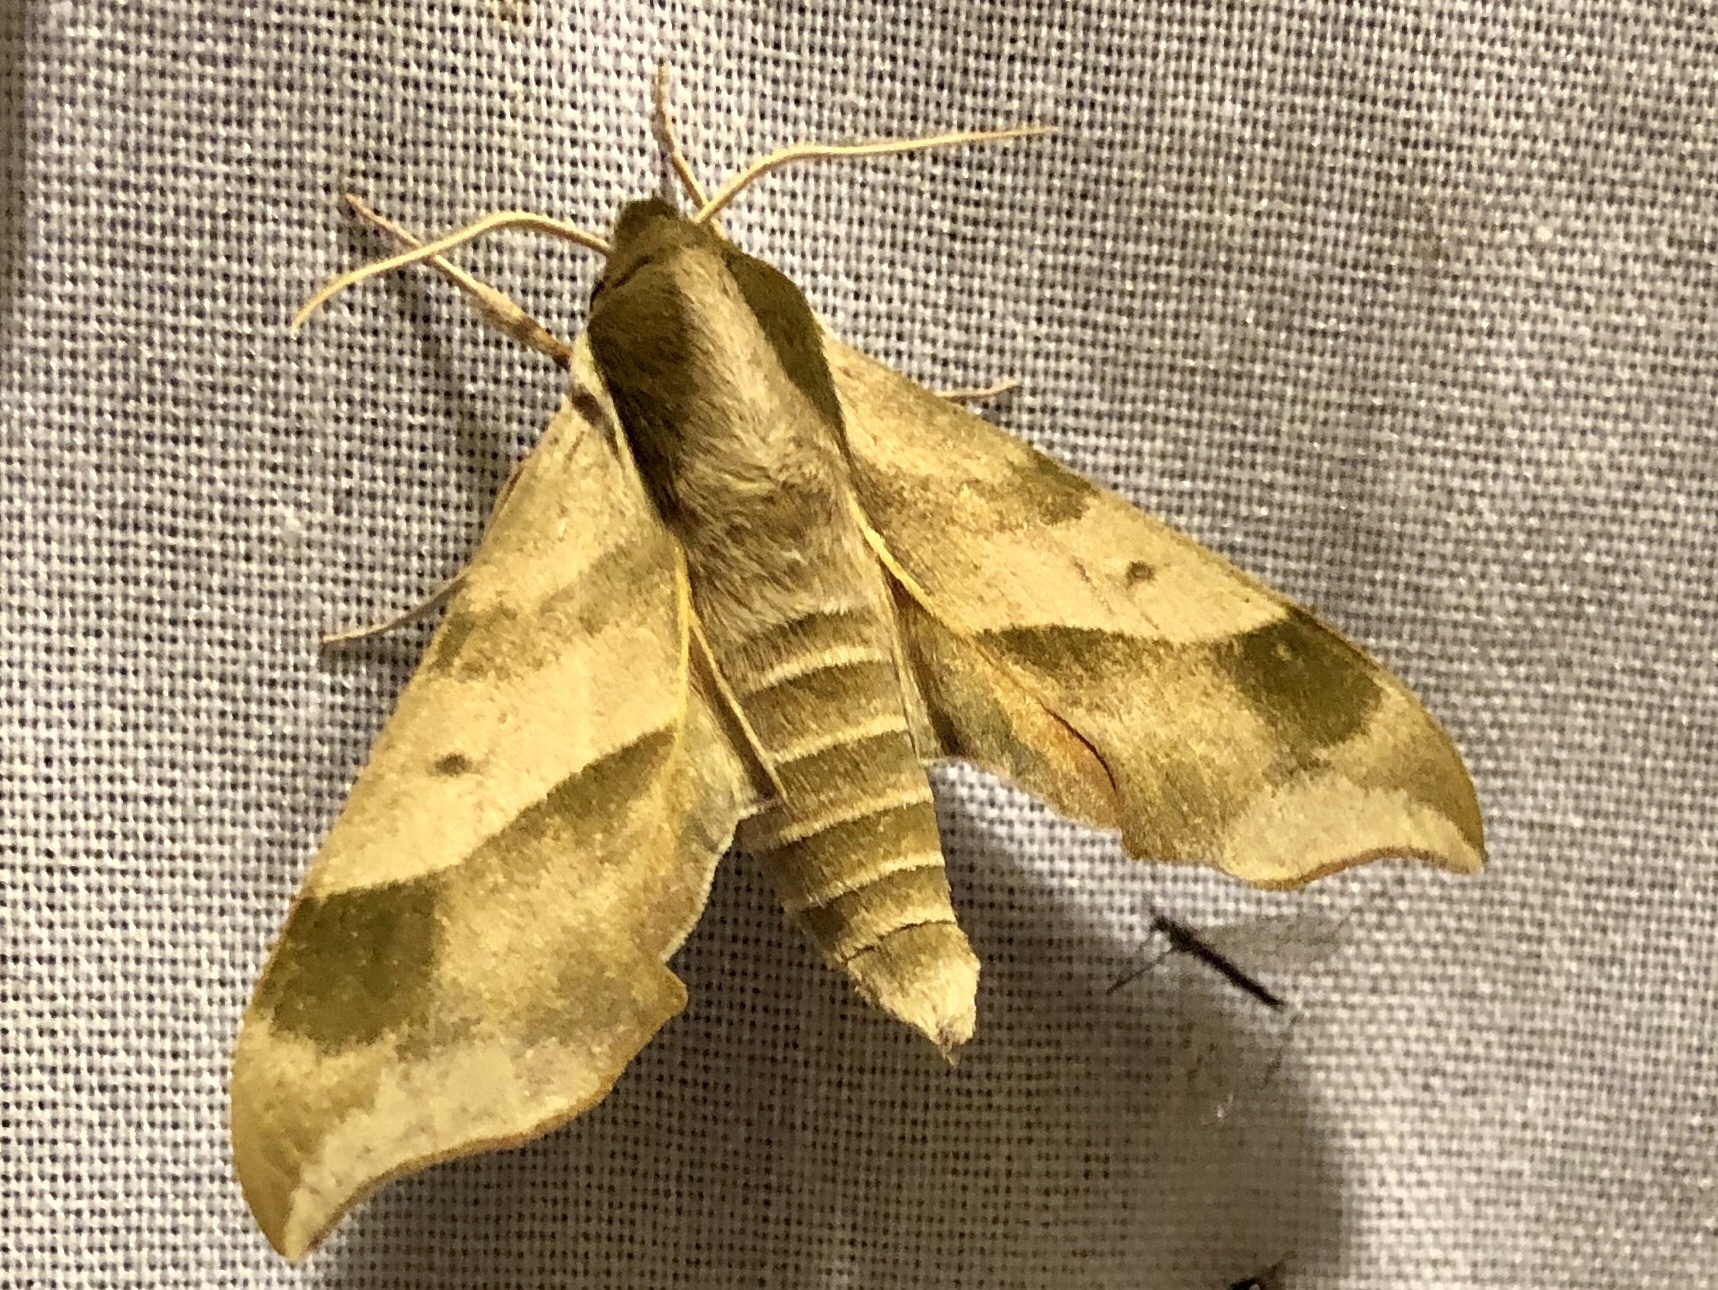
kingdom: Animalia
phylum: Arthropoda
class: Insecta
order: Lepidoptera
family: Sphingidae
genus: Darapsa
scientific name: Darapsa myron
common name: Hog sphinx
